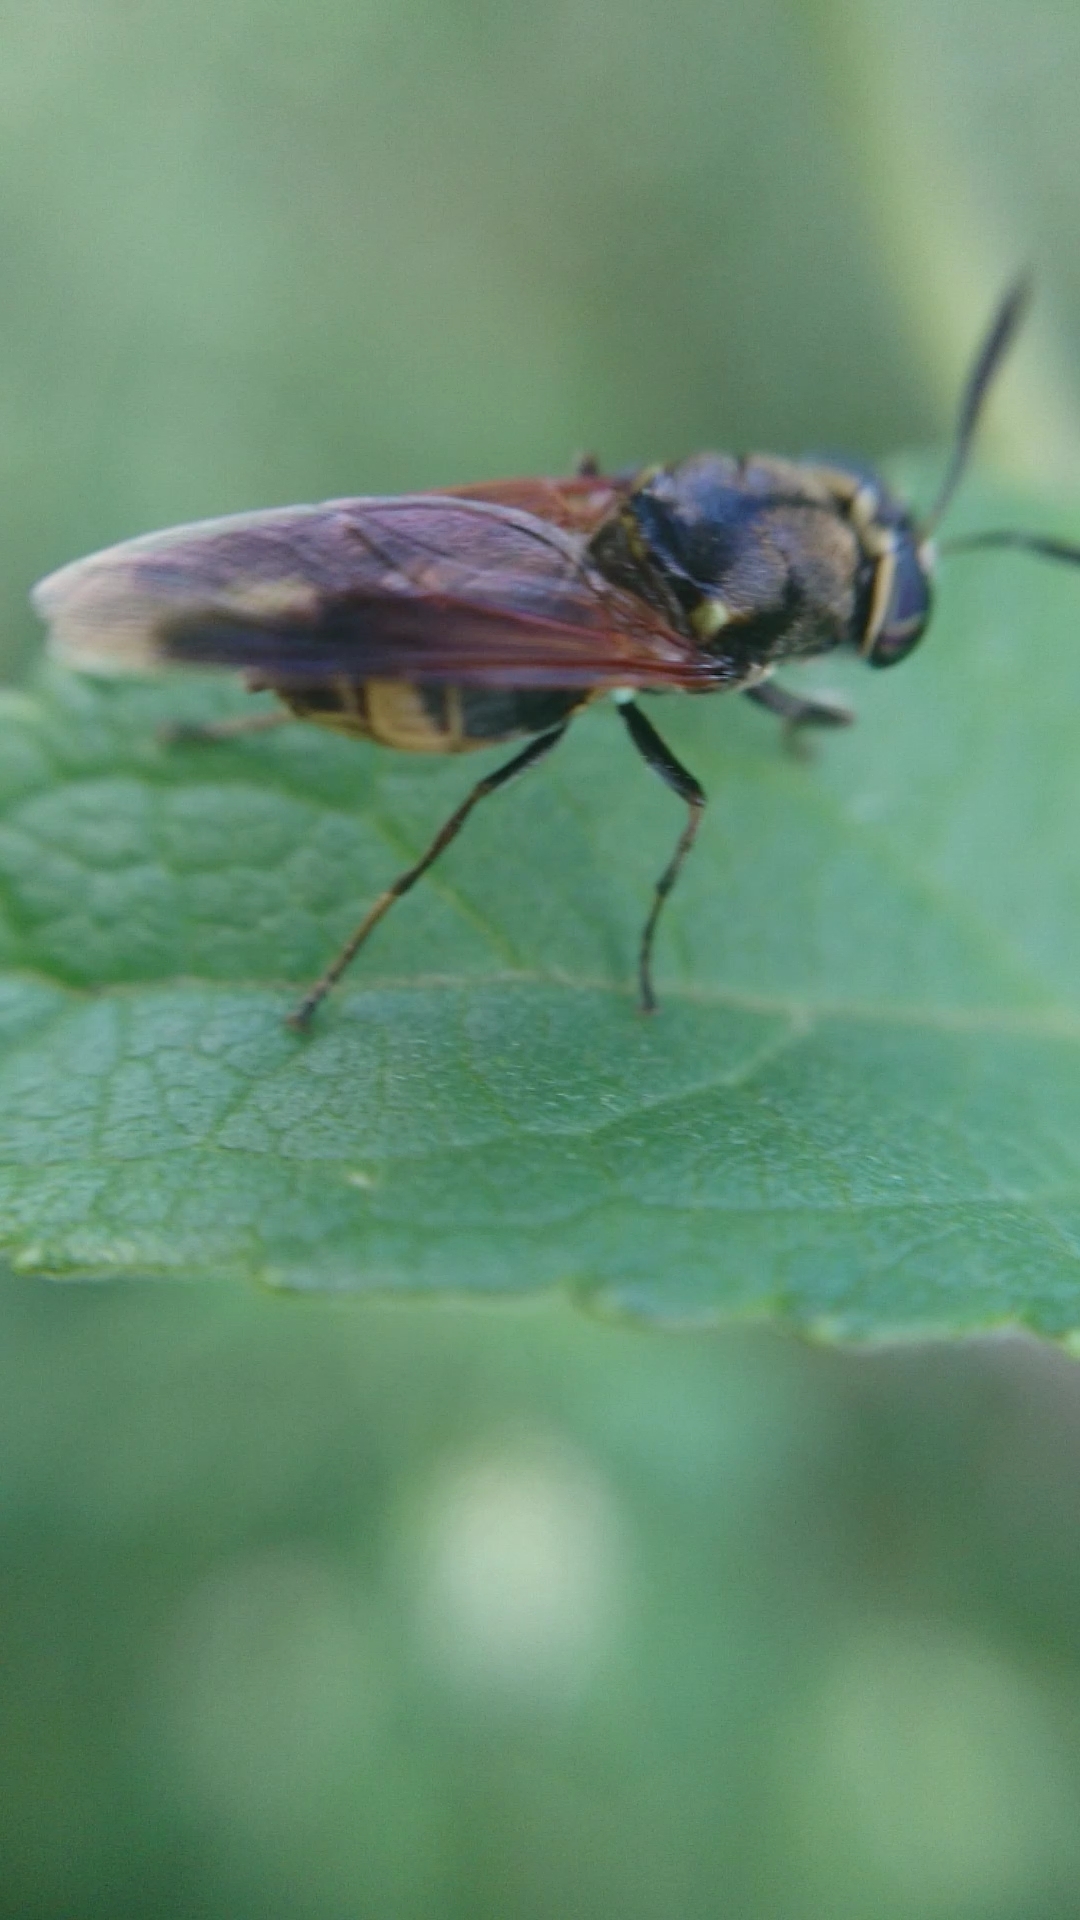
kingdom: Animalia
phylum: Arthropoda
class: Insecta
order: Diptera
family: Stratiomyidae
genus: Hoplitimyia
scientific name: Hoplitimyia
